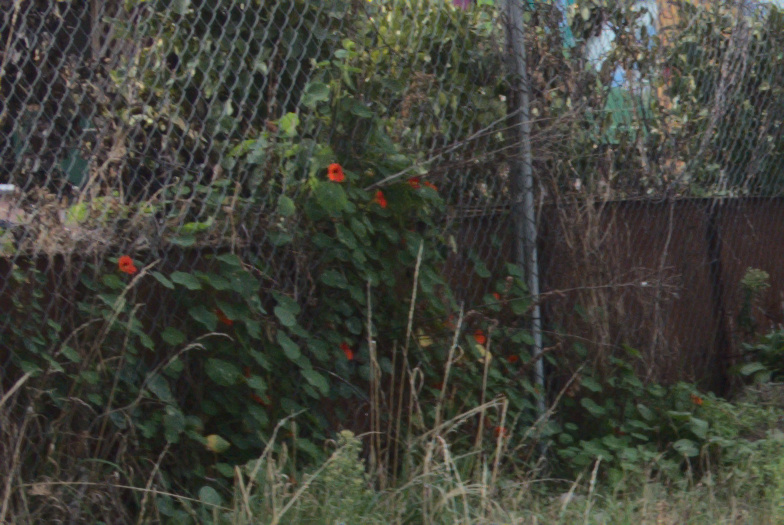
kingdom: Plantae
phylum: Tracheophyta
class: Magnoliopsida
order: Brassicales
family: Tropaeolaceae
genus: Tropaeolum
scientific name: Tropaeolum majus
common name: Nasturtium
